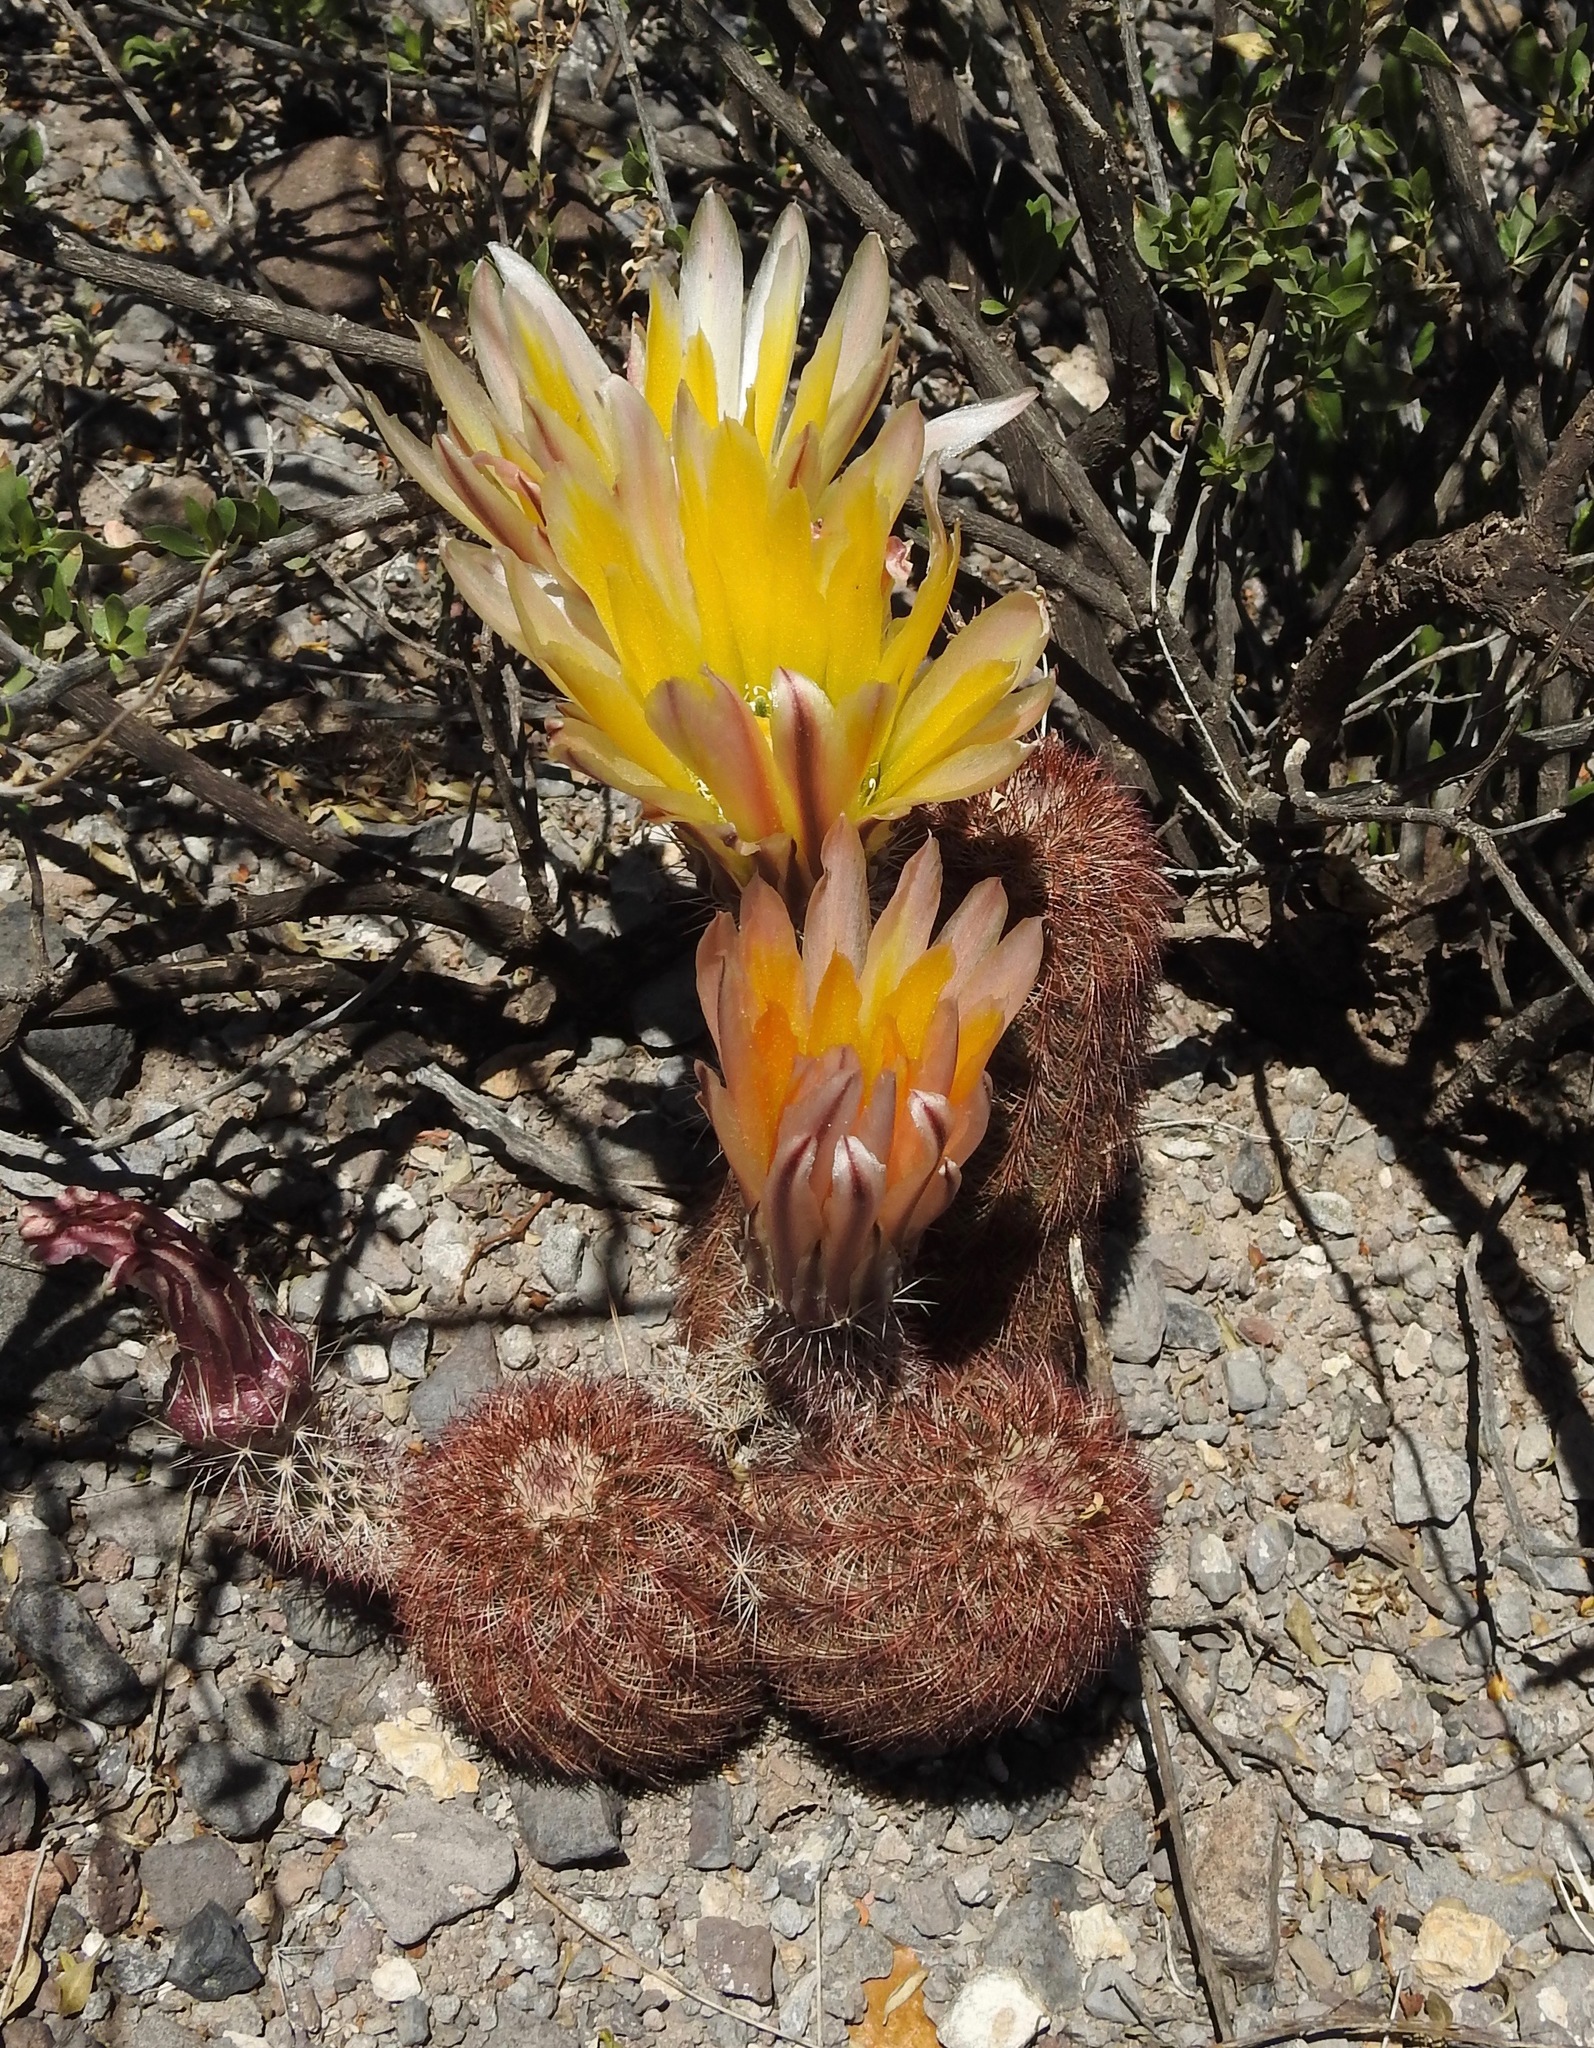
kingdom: Plantae
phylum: Tracheophyta
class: Magnoliopsida
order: Caryophyllales
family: Cactaceae
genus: Echinocereus
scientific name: Echinocereus dasyacanthus
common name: Spiny hedgehog cactus
